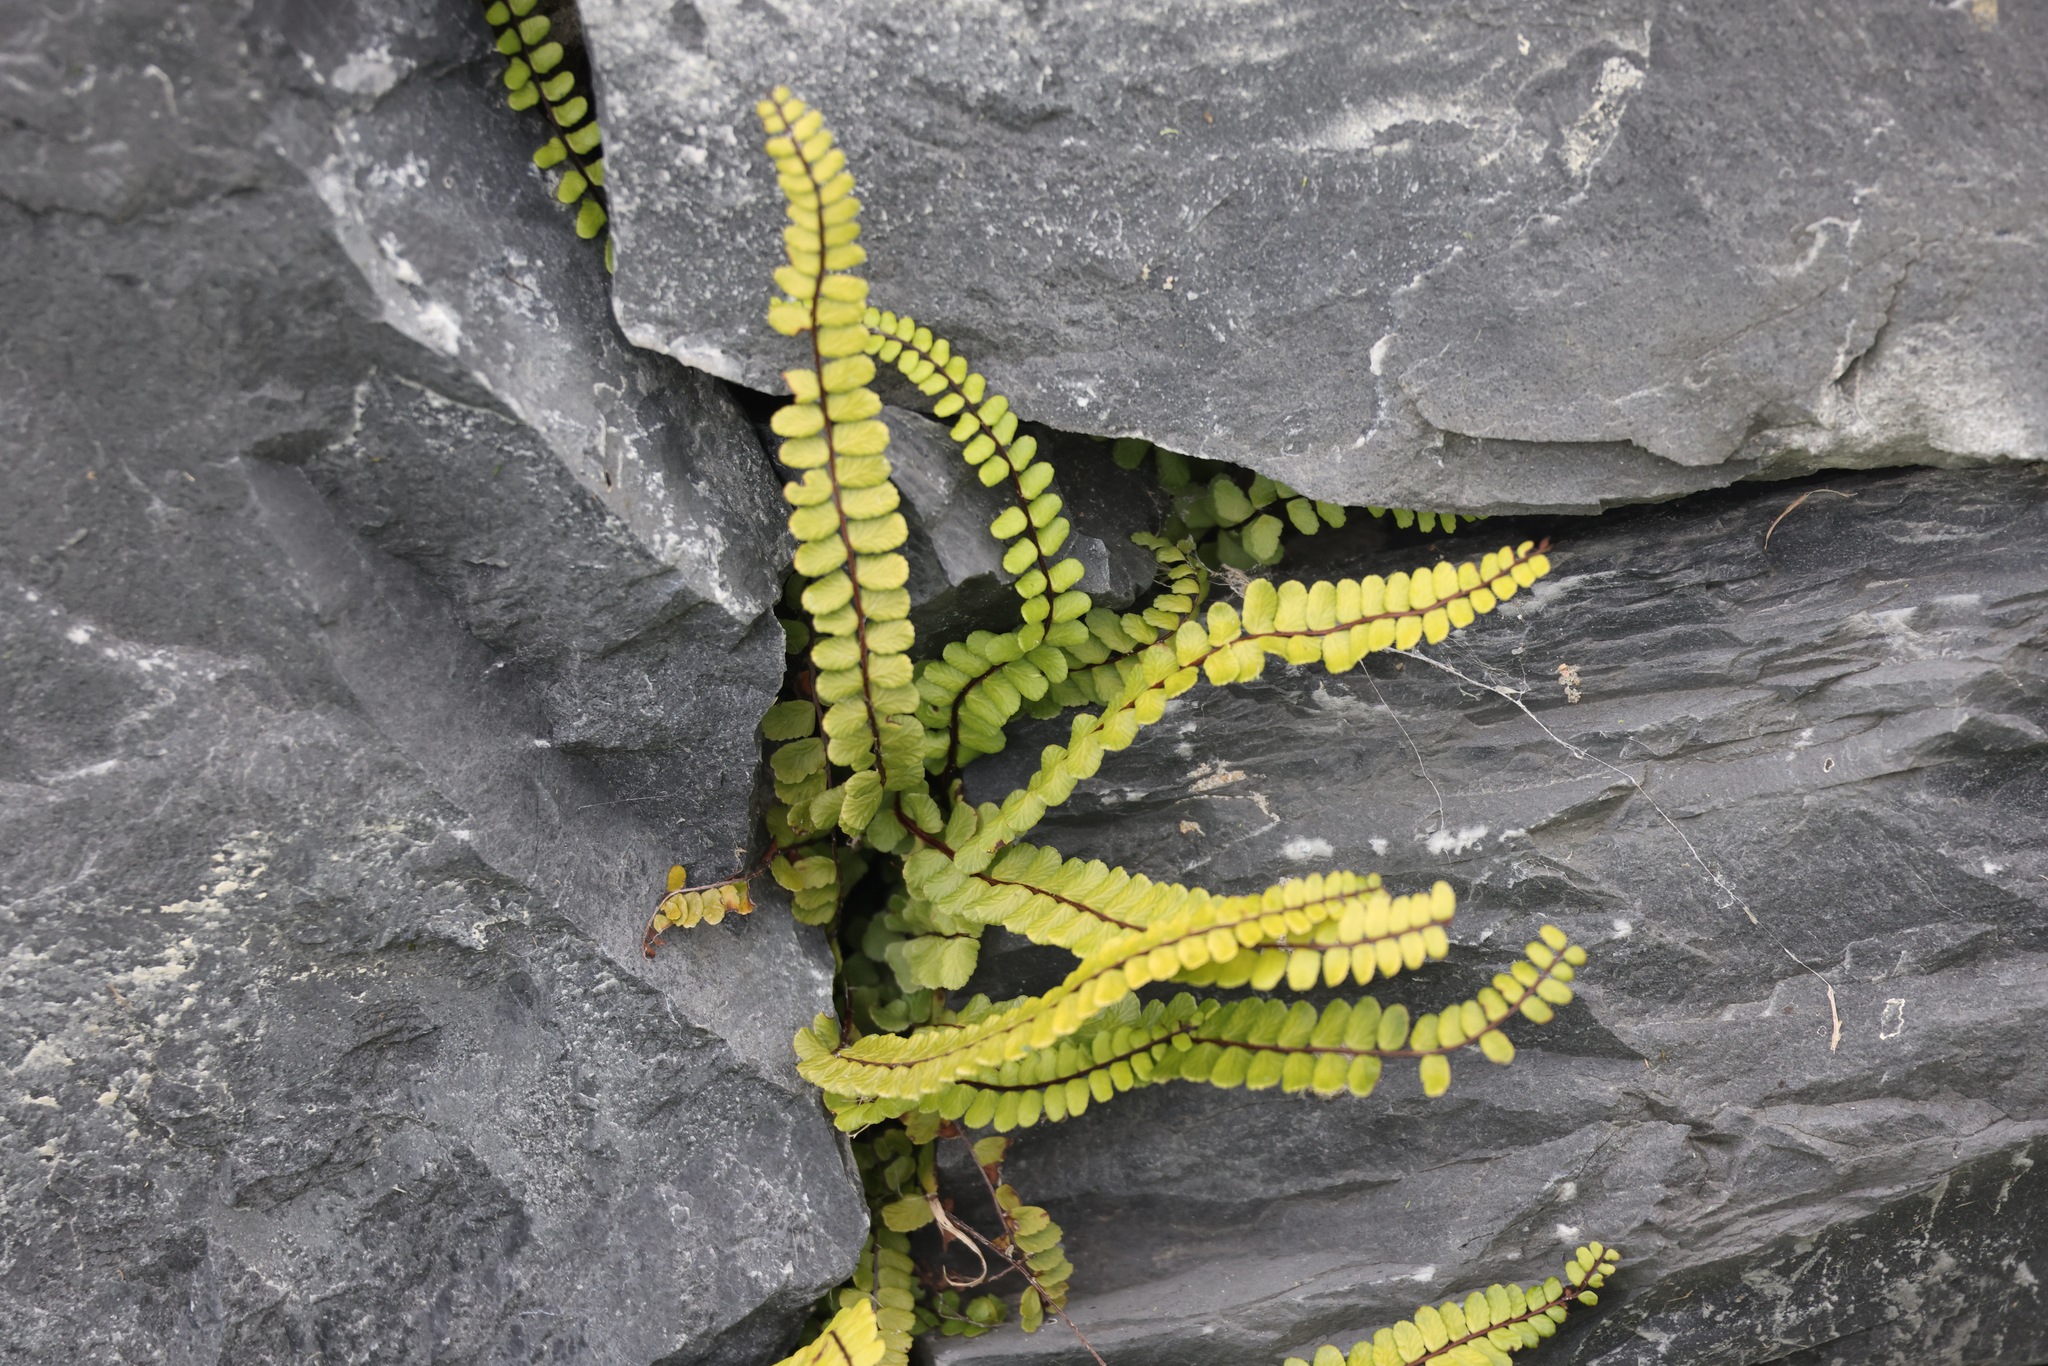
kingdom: Plantae
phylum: Tracheophyta
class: Polypodiopsida
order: Polypodiales
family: Aspleniaceae
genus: Asplenium
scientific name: Asplenium trichomanes
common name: Maidenhair spleenwort
